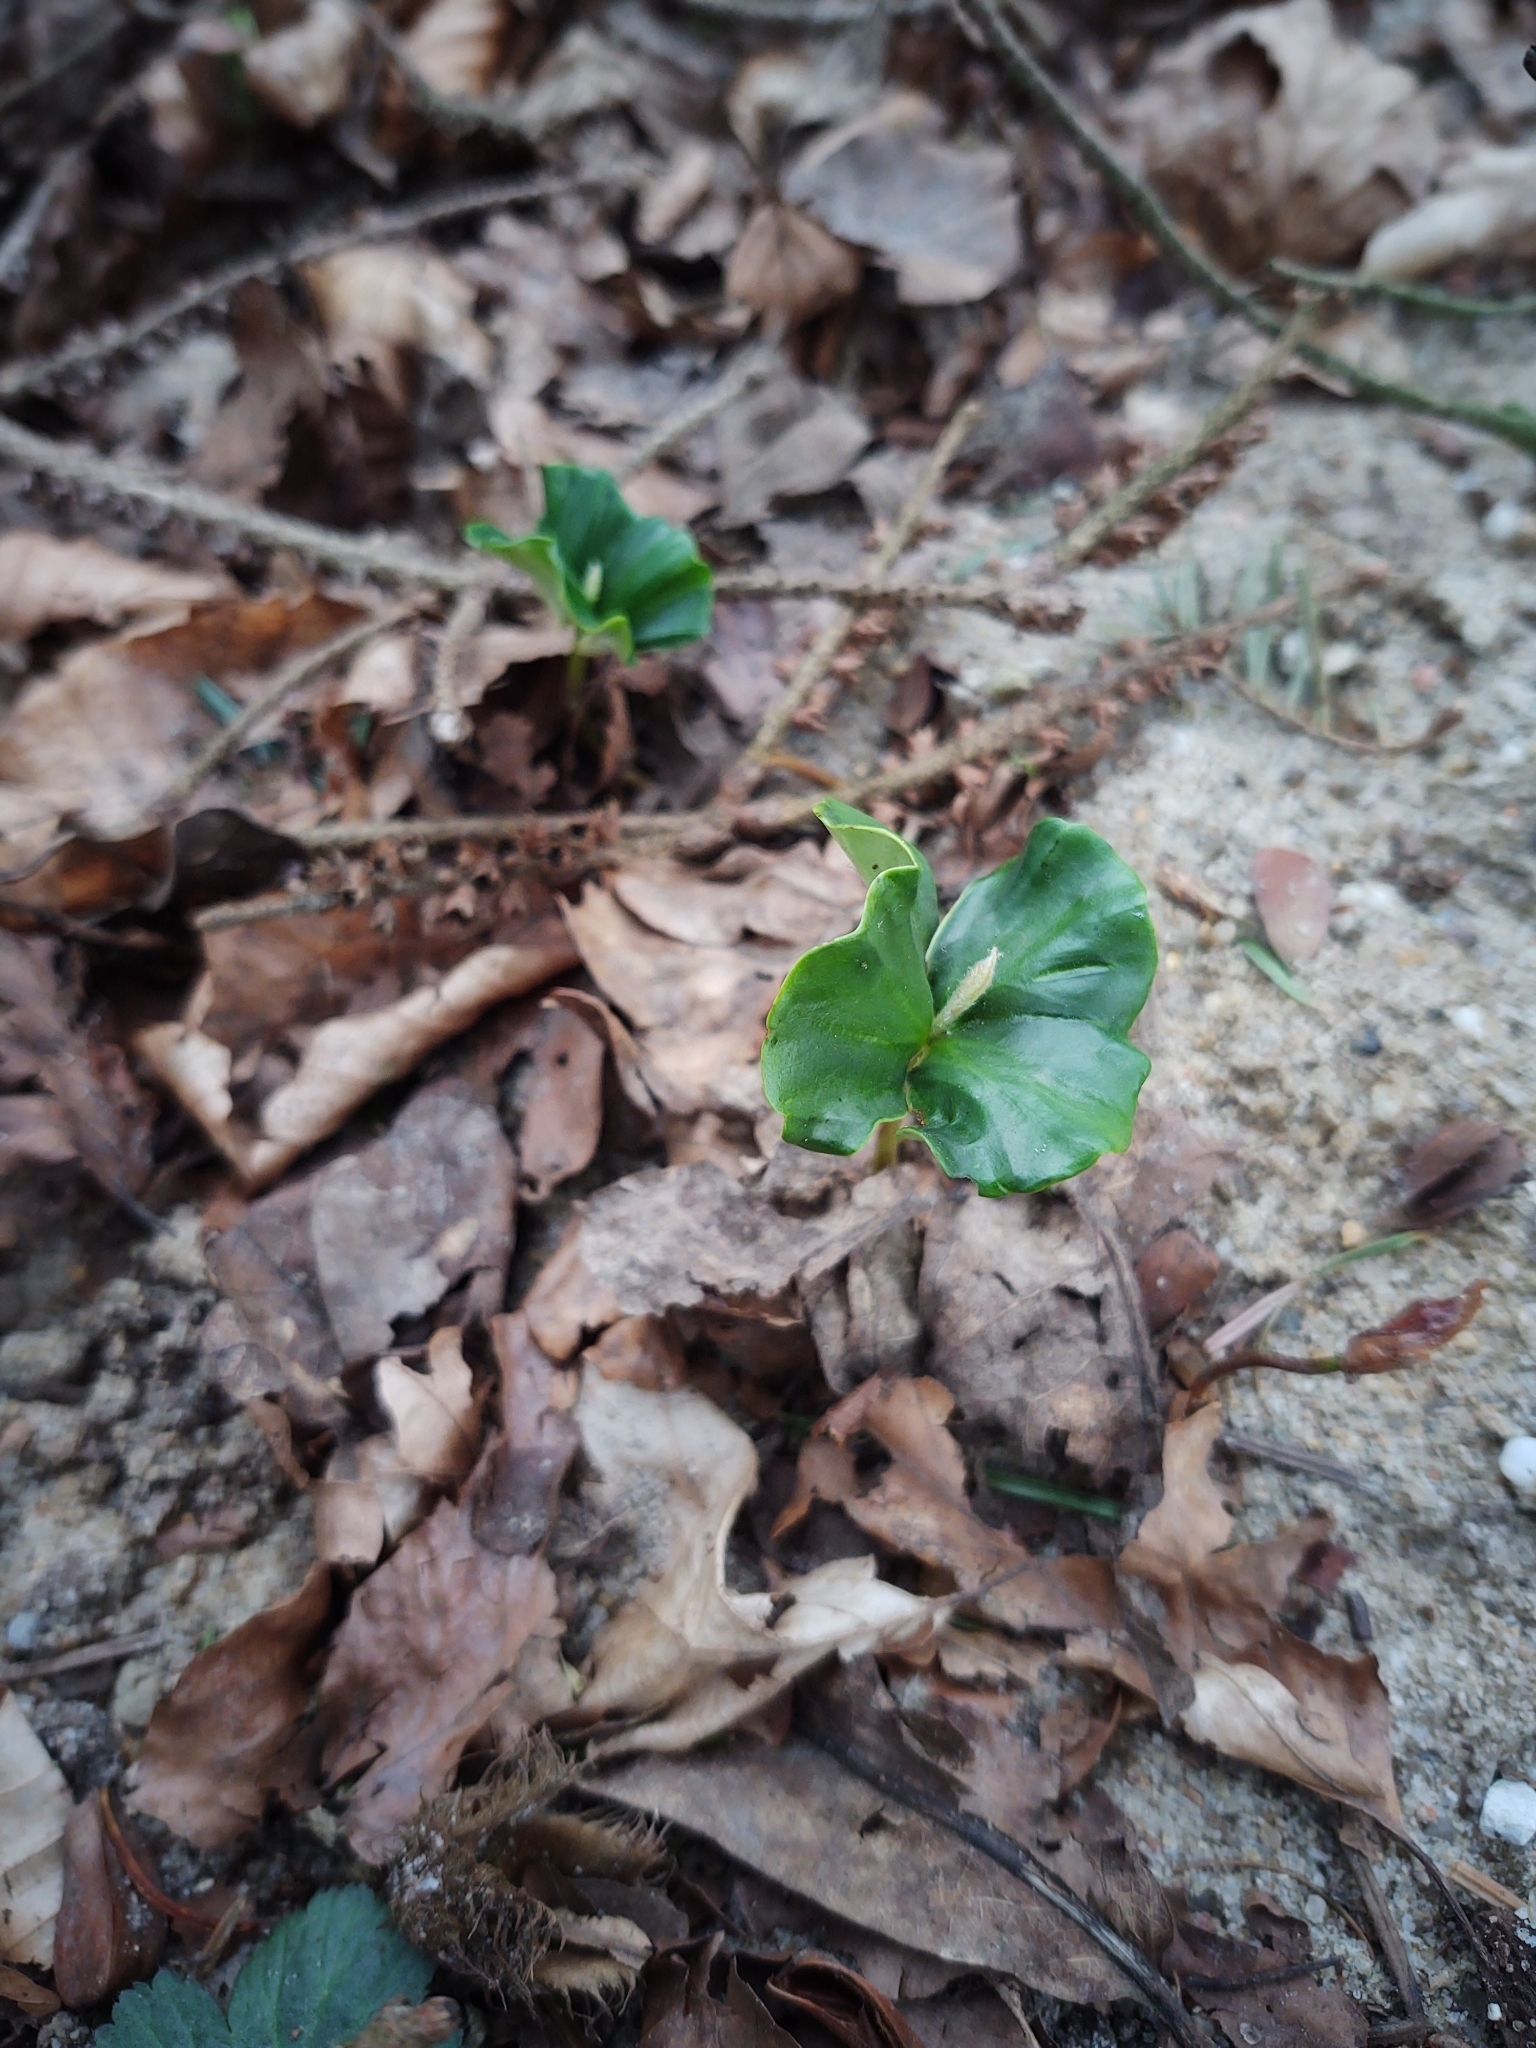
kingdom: Plantae
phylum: Tracheophyta
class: Magnoliopsida
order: Fagales
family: Fagaceae
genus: Fagus
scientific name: Fagus sylvatica
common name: Beech
